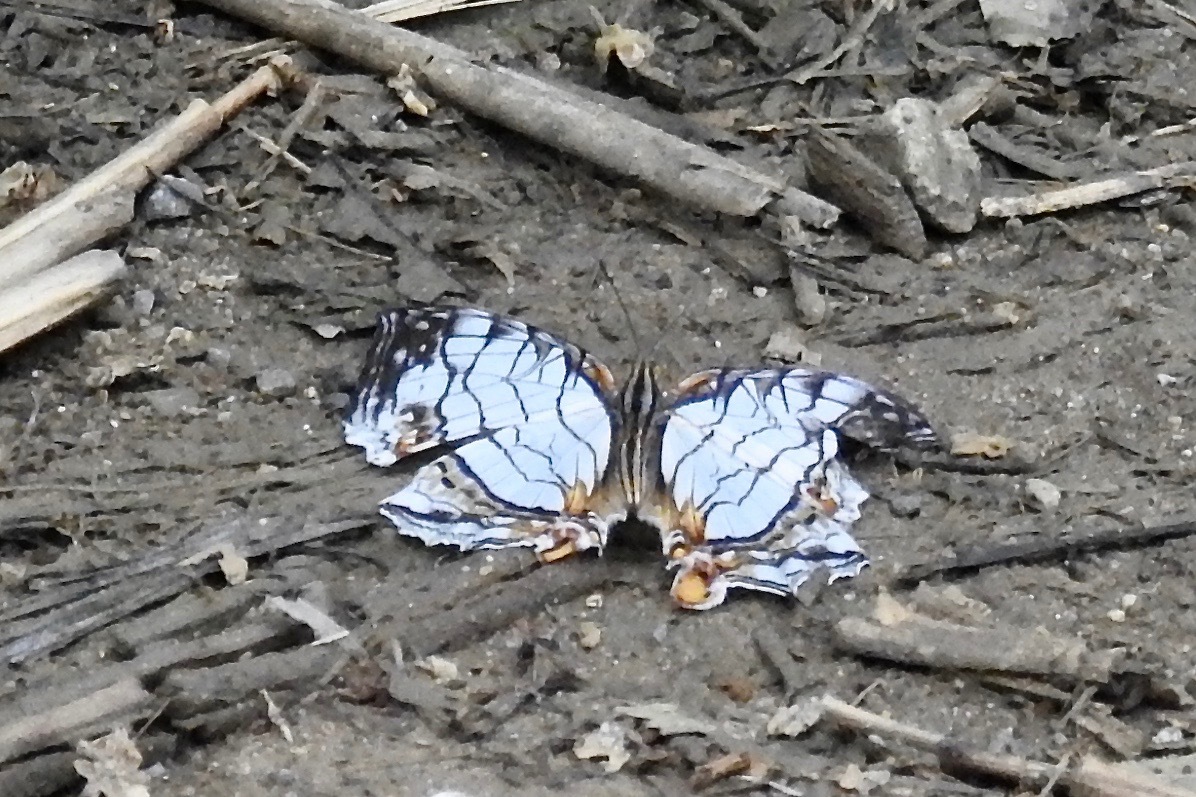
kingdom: Animalia
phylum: Arthropoda
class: Insecta
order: Lepidoptera
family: Nymphalidae
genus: Cyrestis
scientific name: Cyrestis thyodamas
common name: Common mapwing
